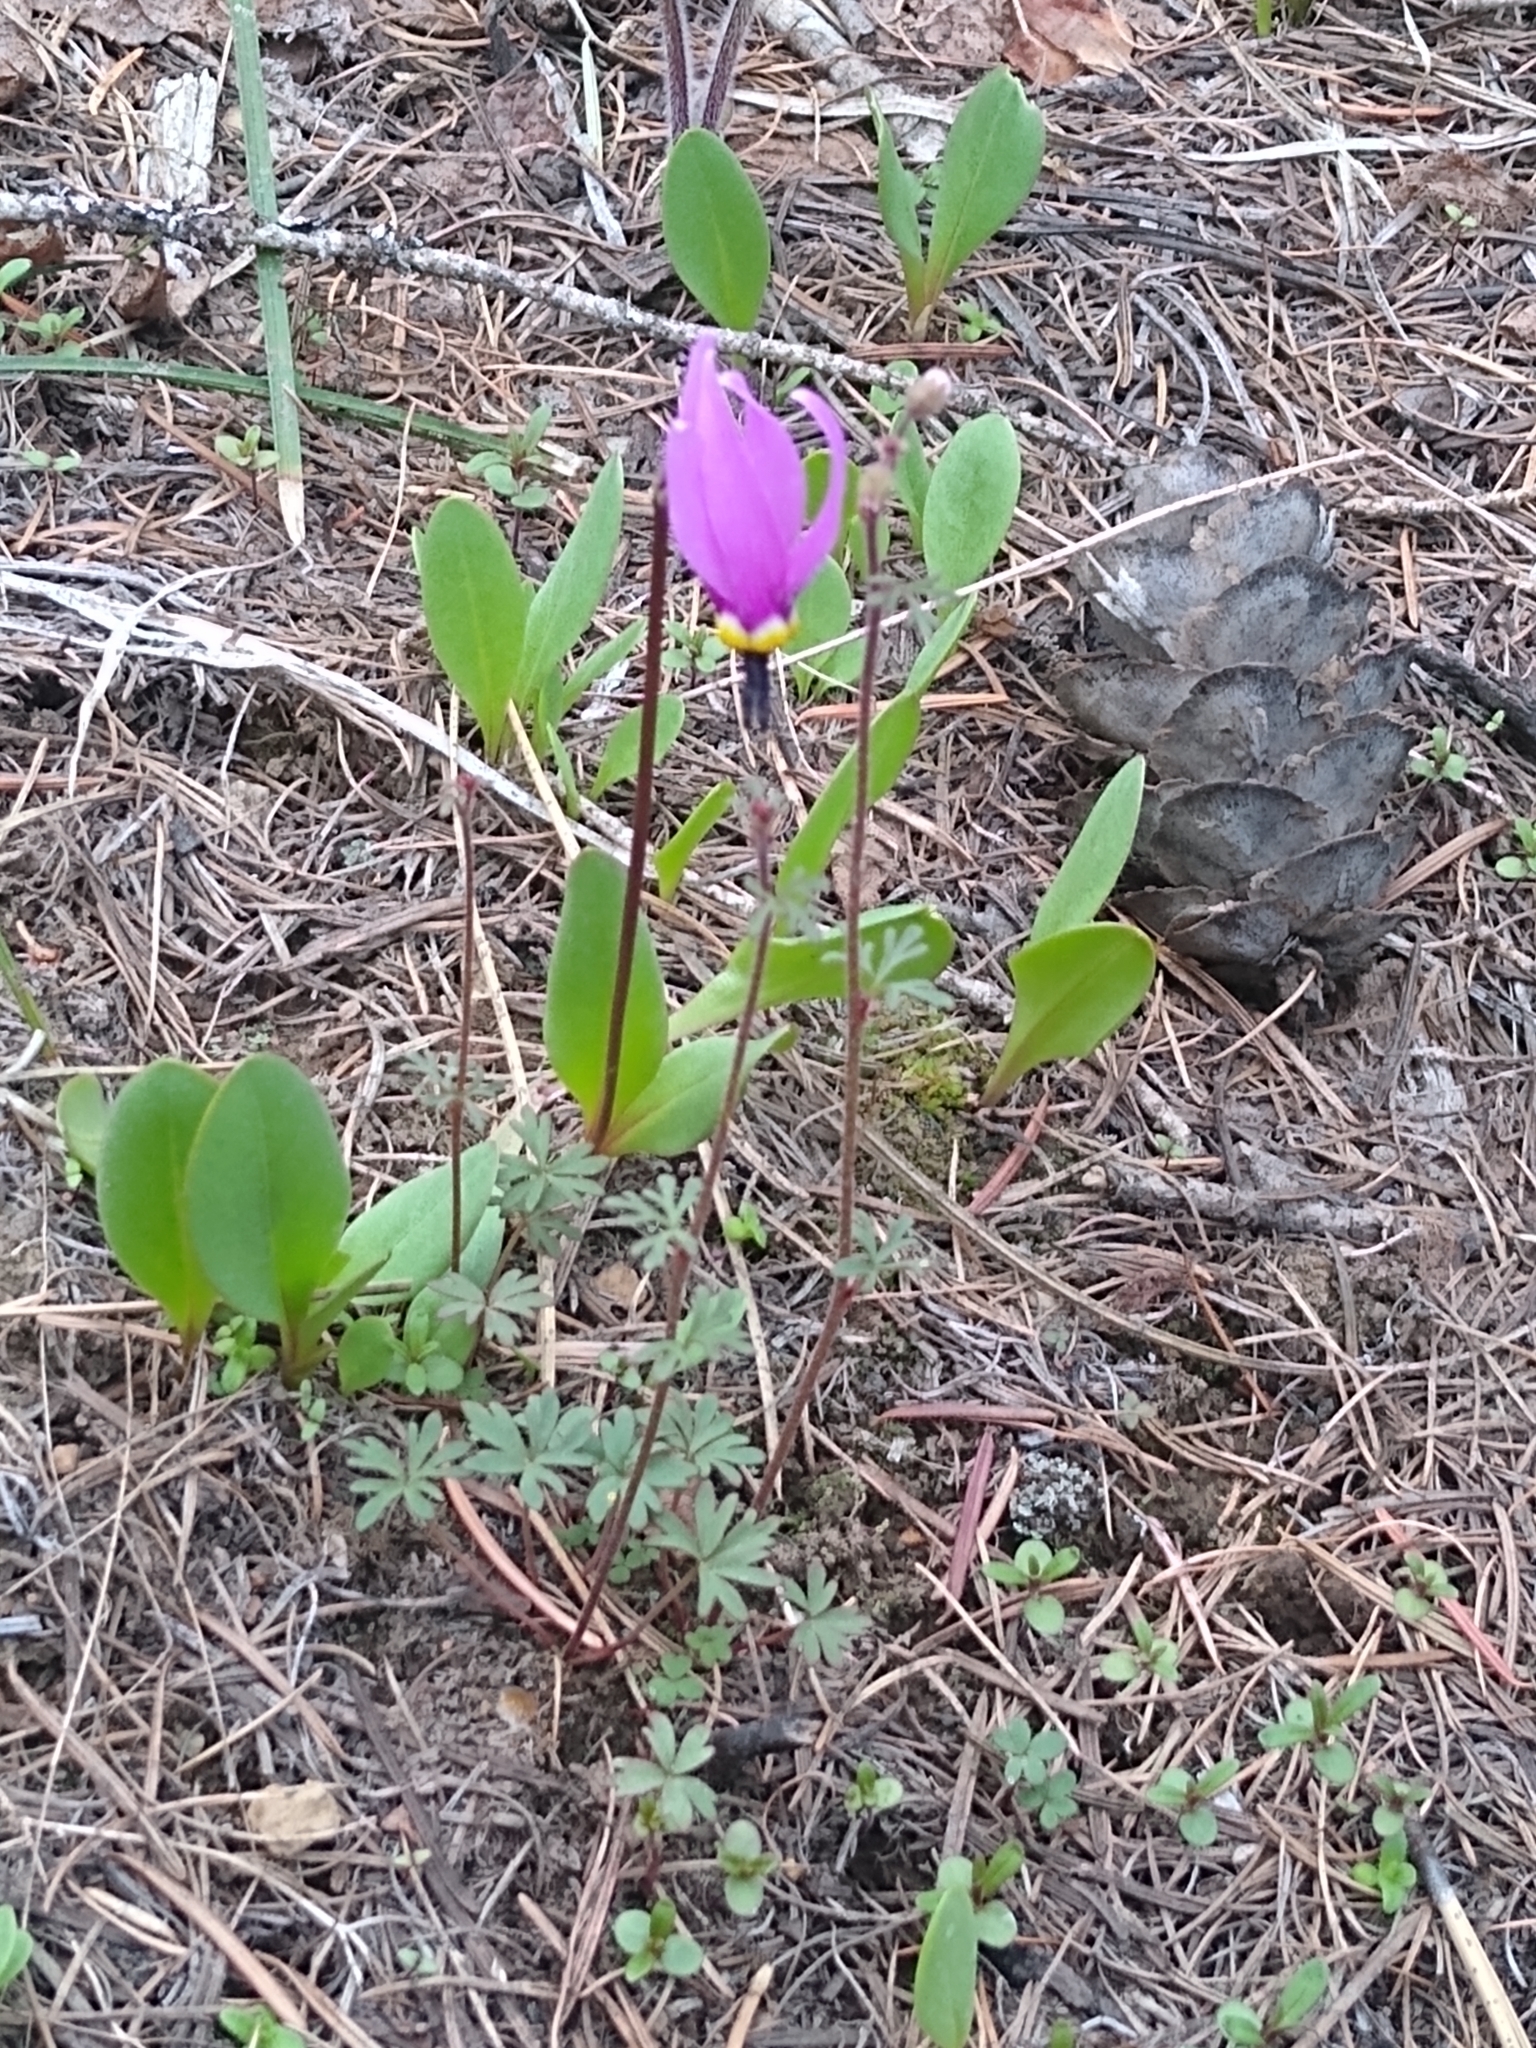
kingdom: Plantae
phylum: Tracheophyta
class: Magnoliopsida
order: Ericales
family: Primulaceae
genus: Dodecatheon
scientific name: Dodecatheon pulchellum
